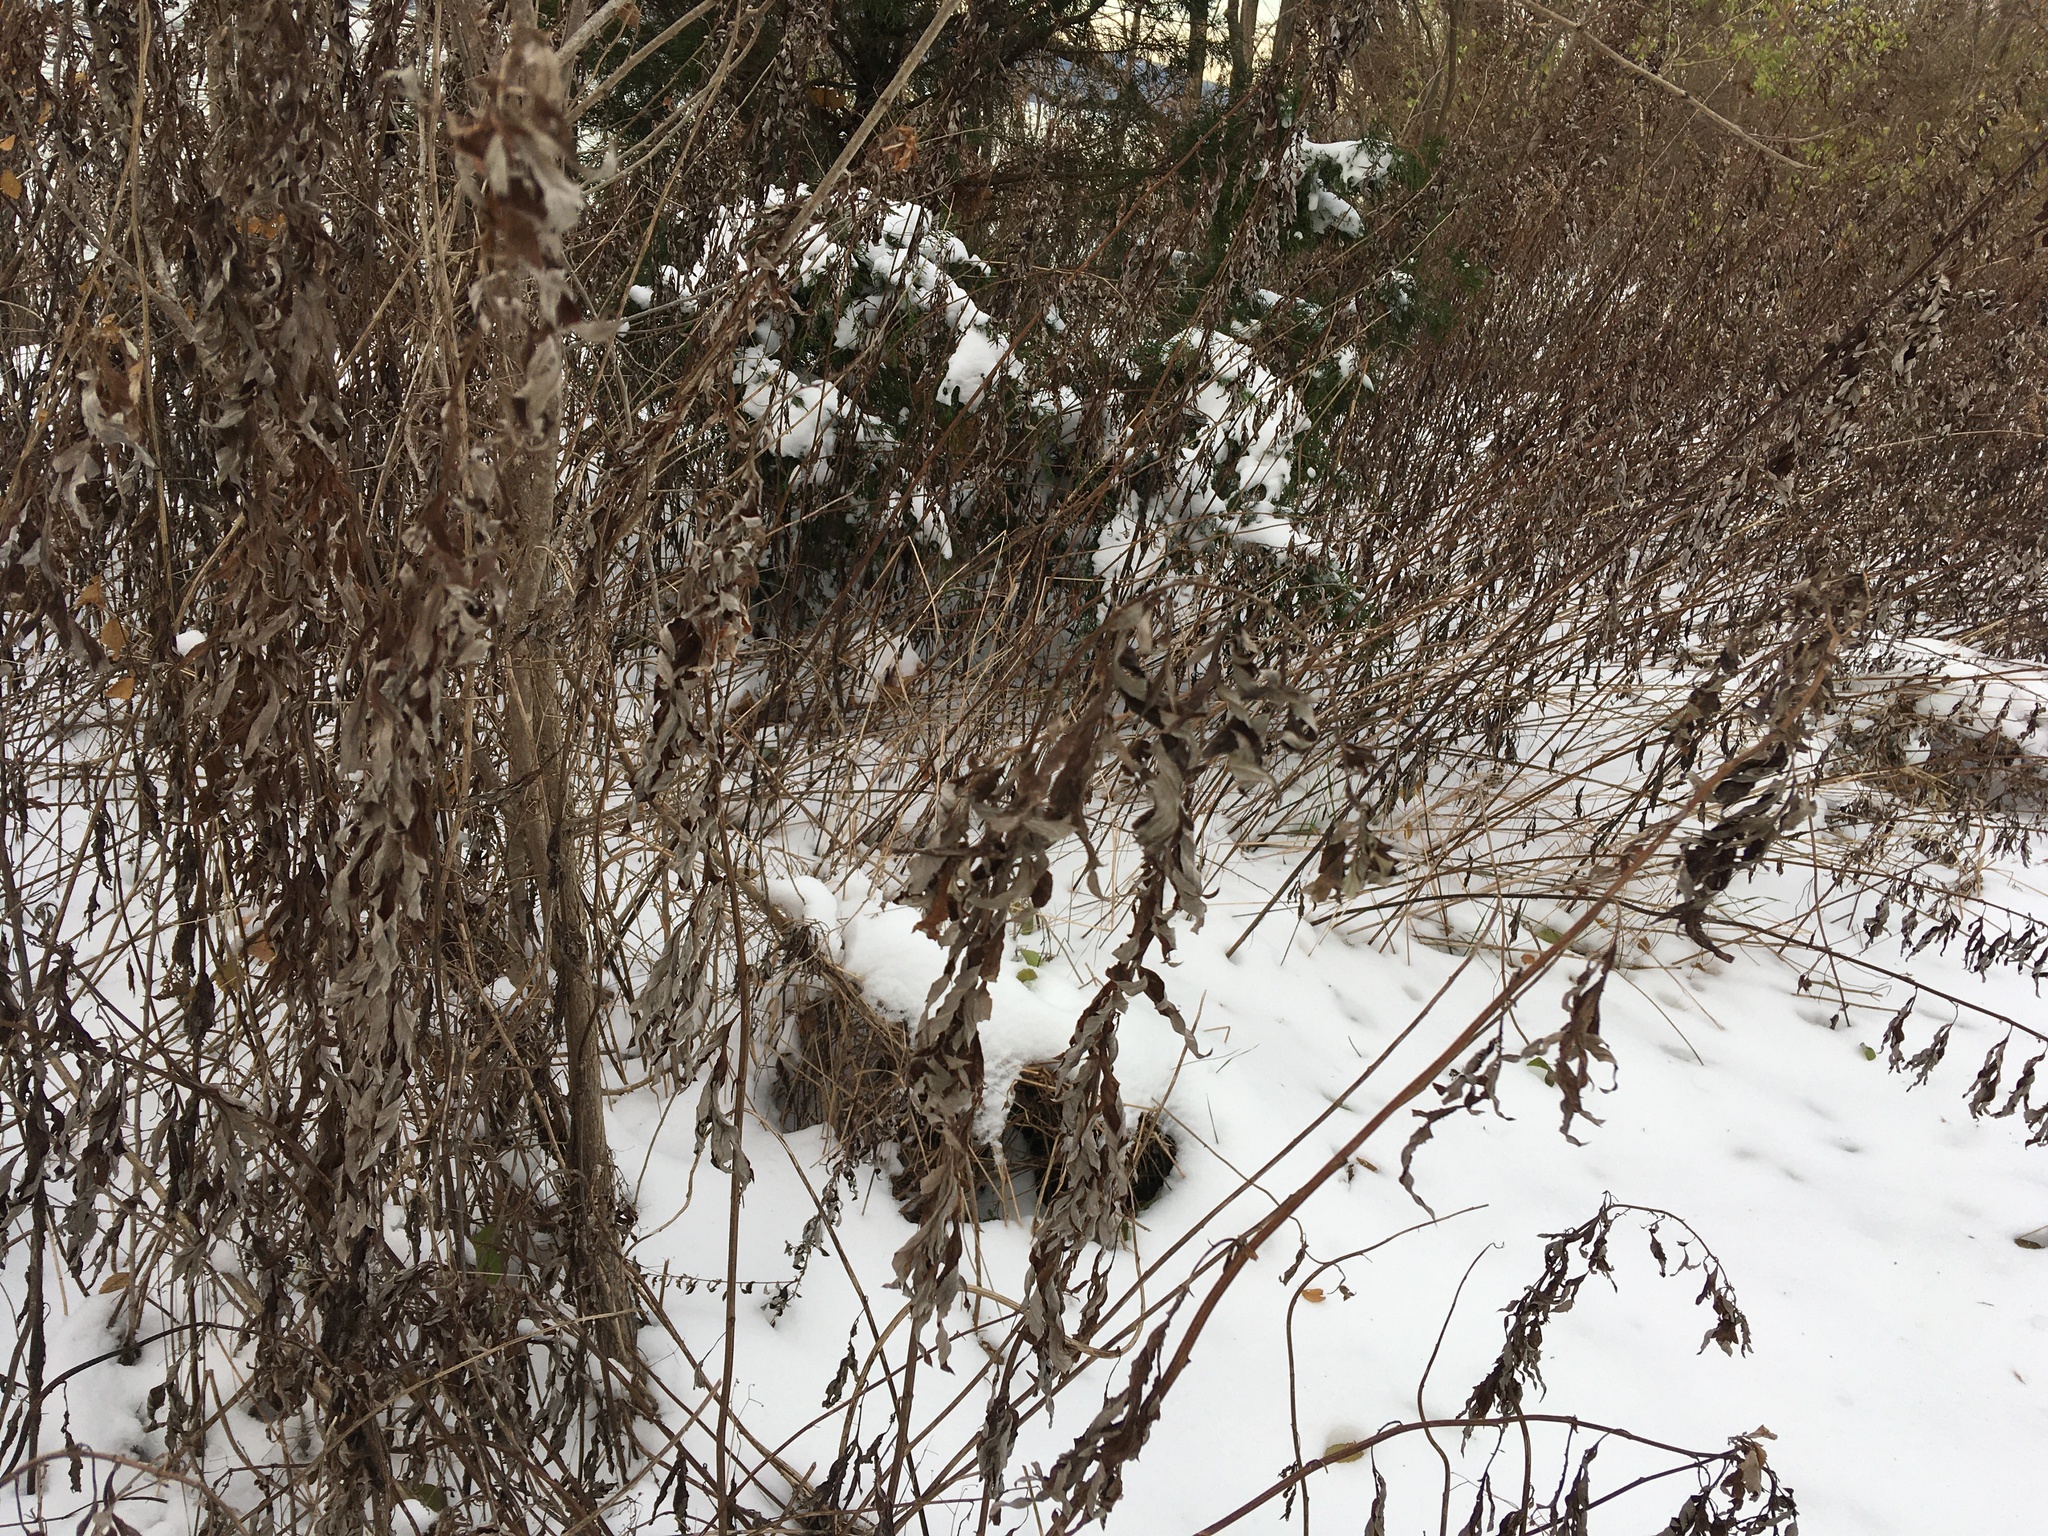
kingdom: Plantae
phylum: Tracheophyta
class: Magnoliopsida
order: Asterales
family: Asteraceae
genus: Artemisia
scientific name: Artemisia vulgaris
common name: Mugwort
